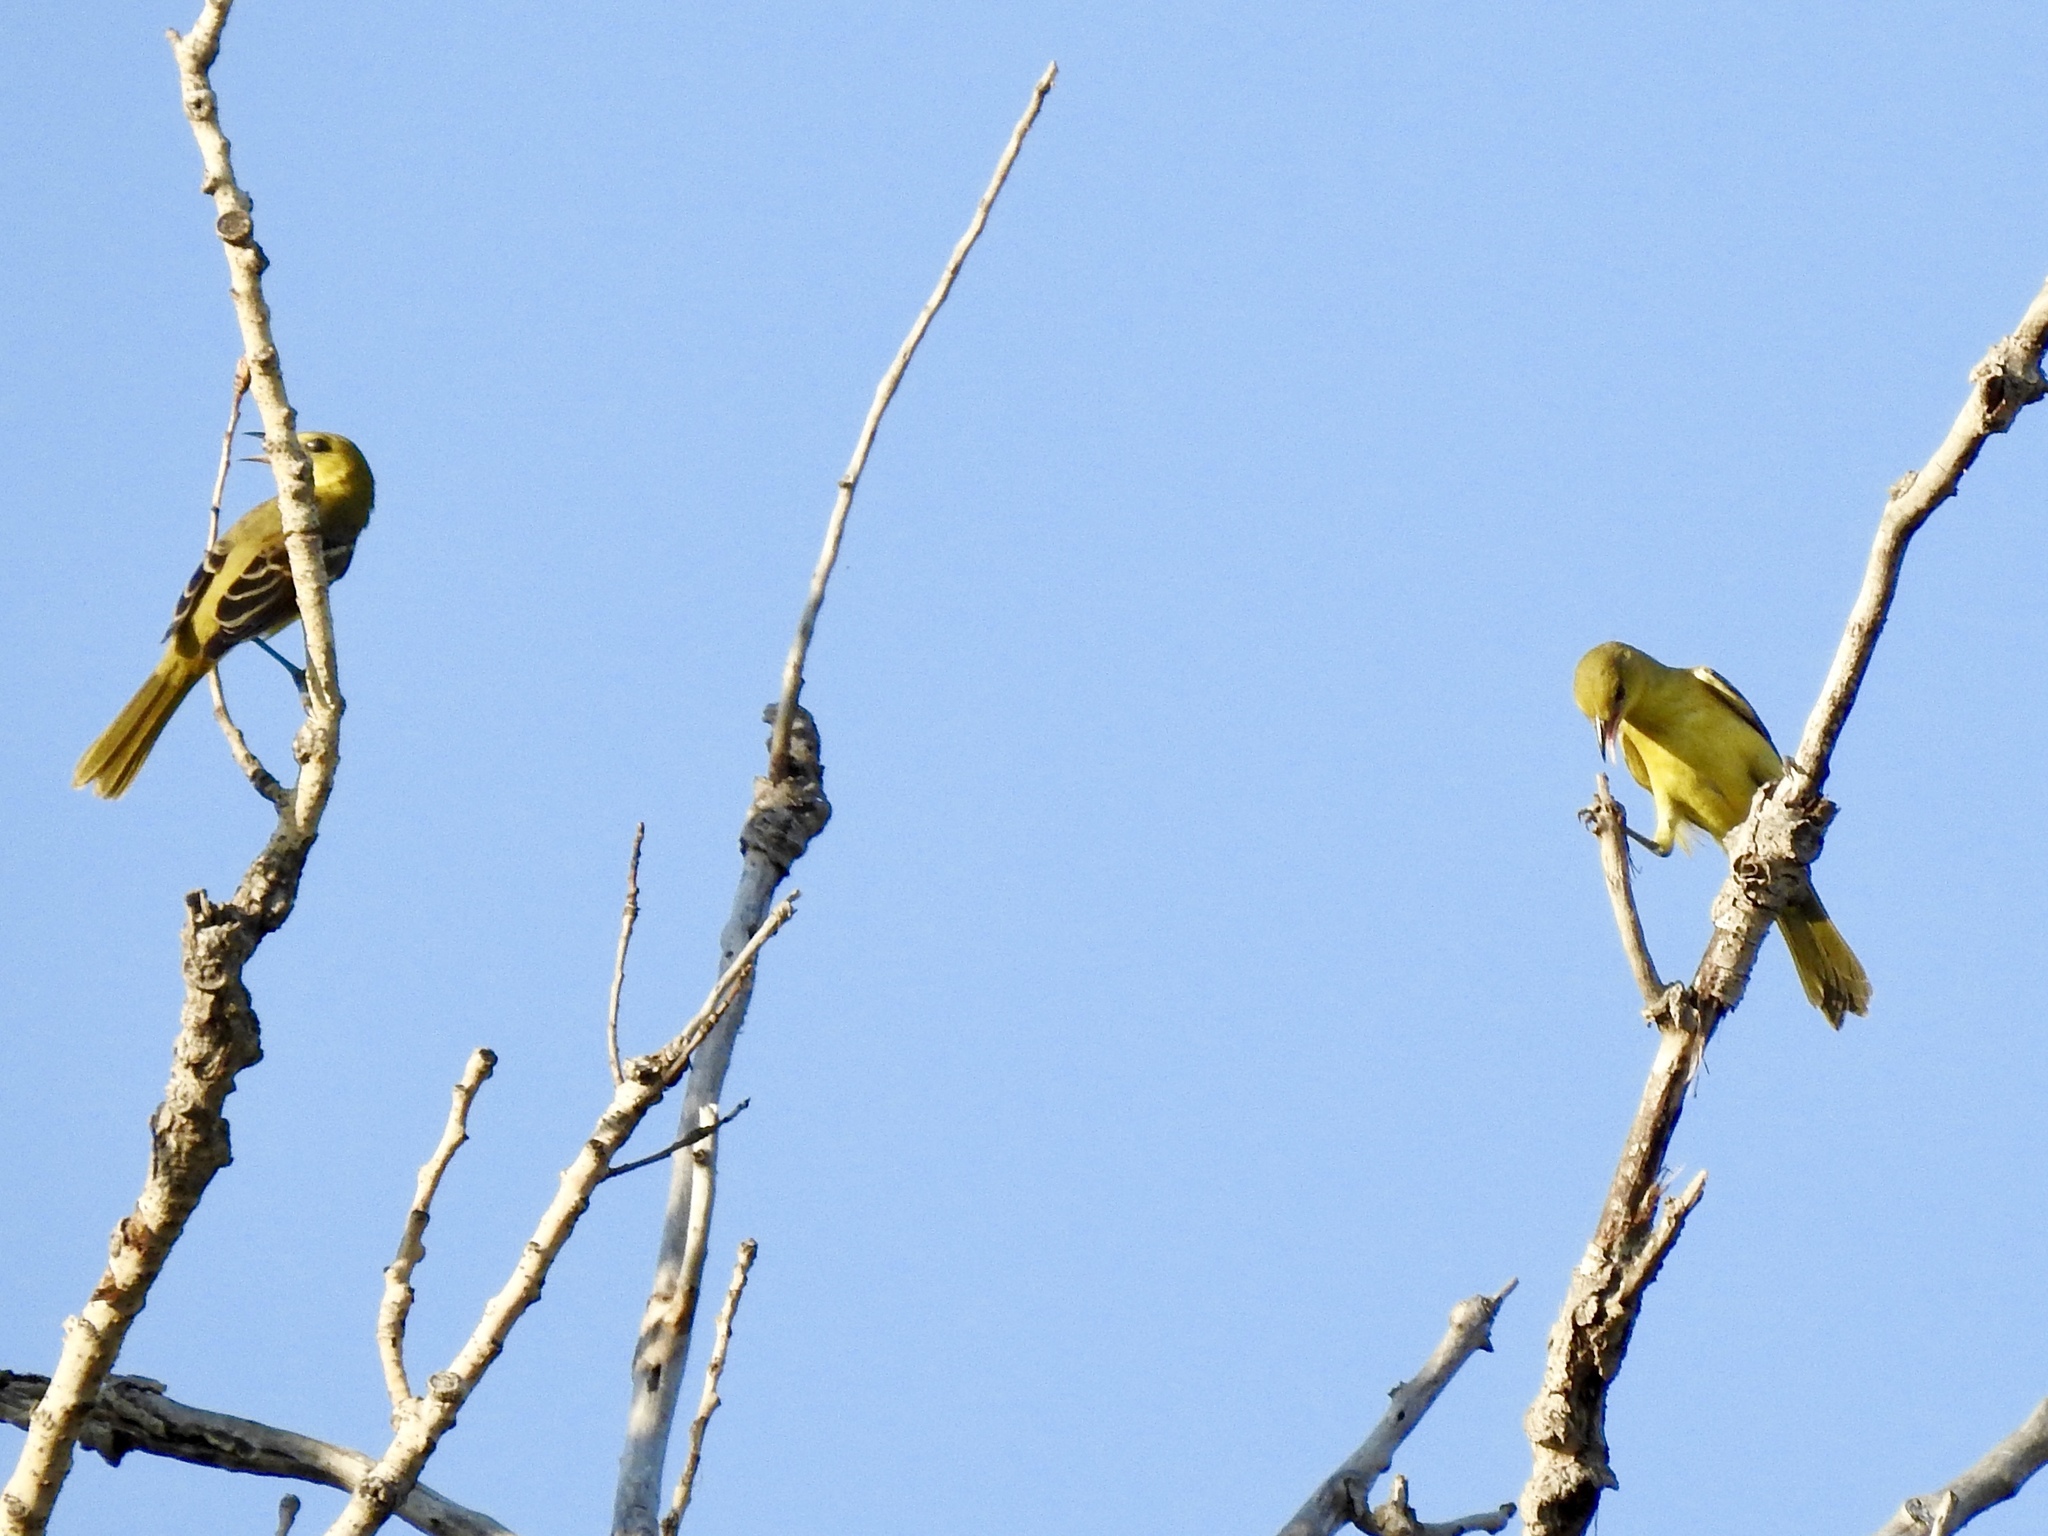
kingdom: Animalia
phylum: Chordata
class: Aves
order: Passeriformes
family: Icteridae
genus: Icterus
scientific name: Icterus spurius
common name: Orchard oriole
